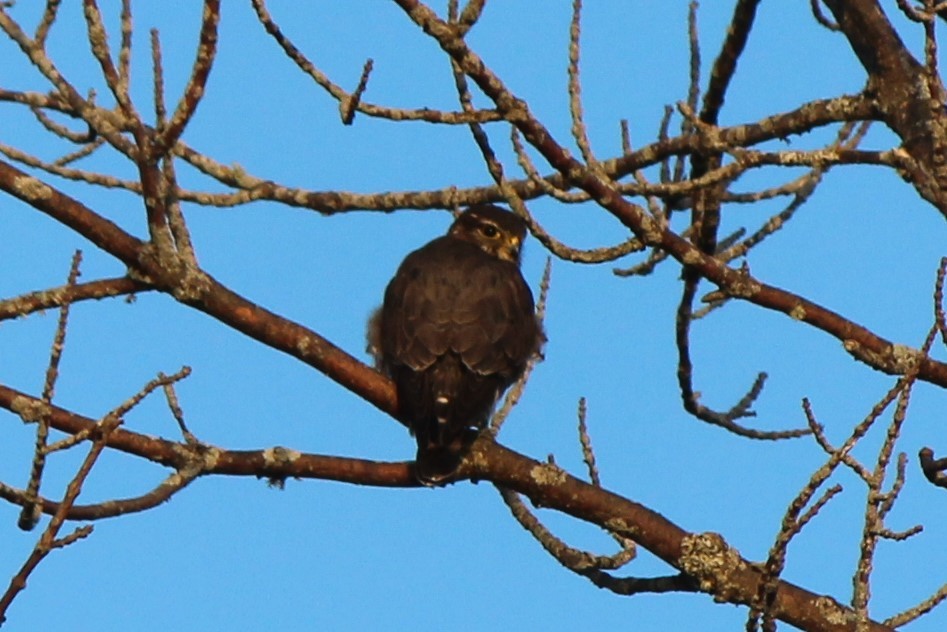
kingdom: Animalia
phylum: Chordata
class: Aves
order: Falconiformes
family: Falconidae
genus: Falco
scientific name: Falco columbarius
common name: Merlin
